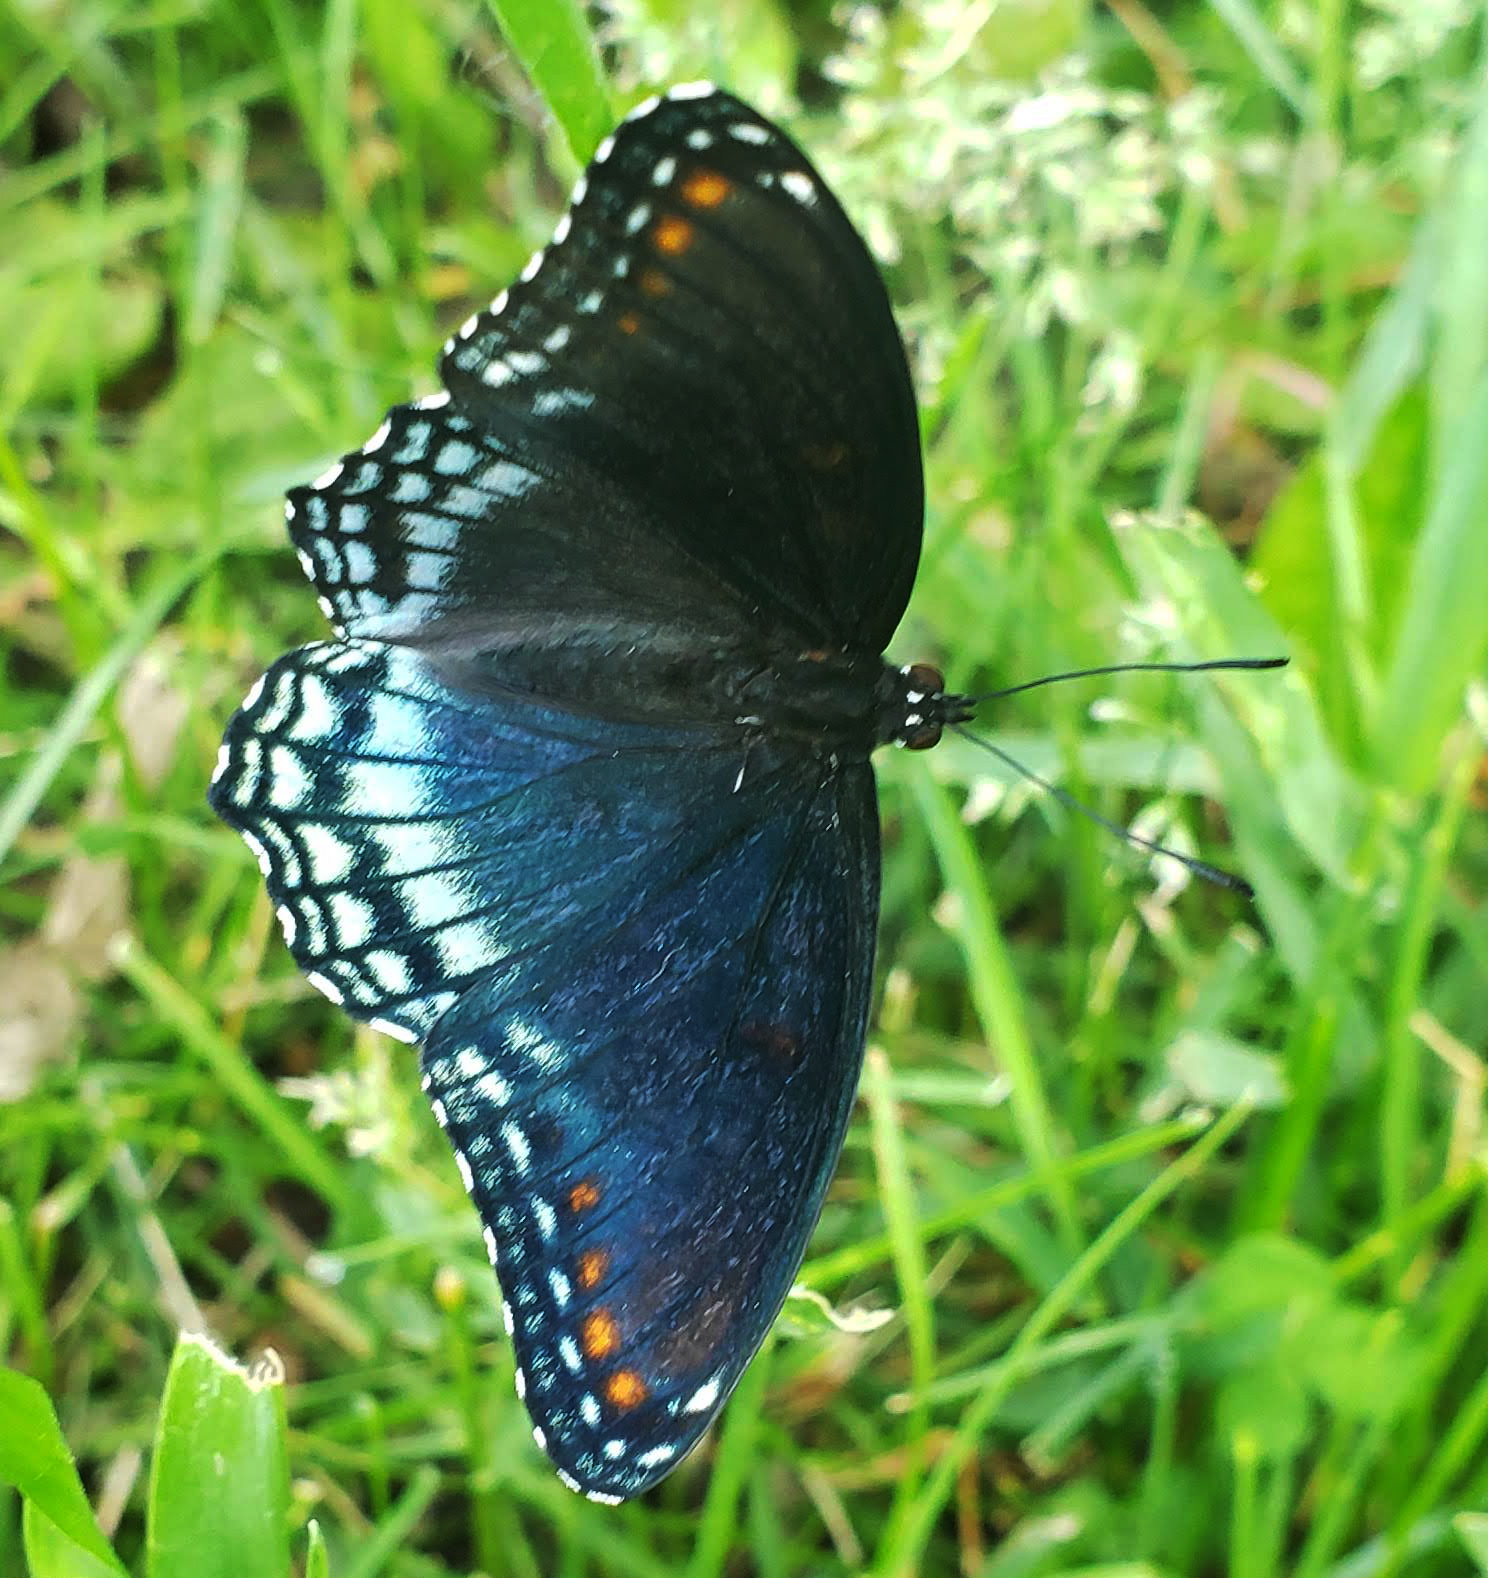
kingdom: Animalia
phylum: Arthropoda
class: Insecta
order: Lepidoptera
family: Nymphalidae
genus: Limenitis
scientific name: Limenitis arthemis
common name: Red-spotted admiral
